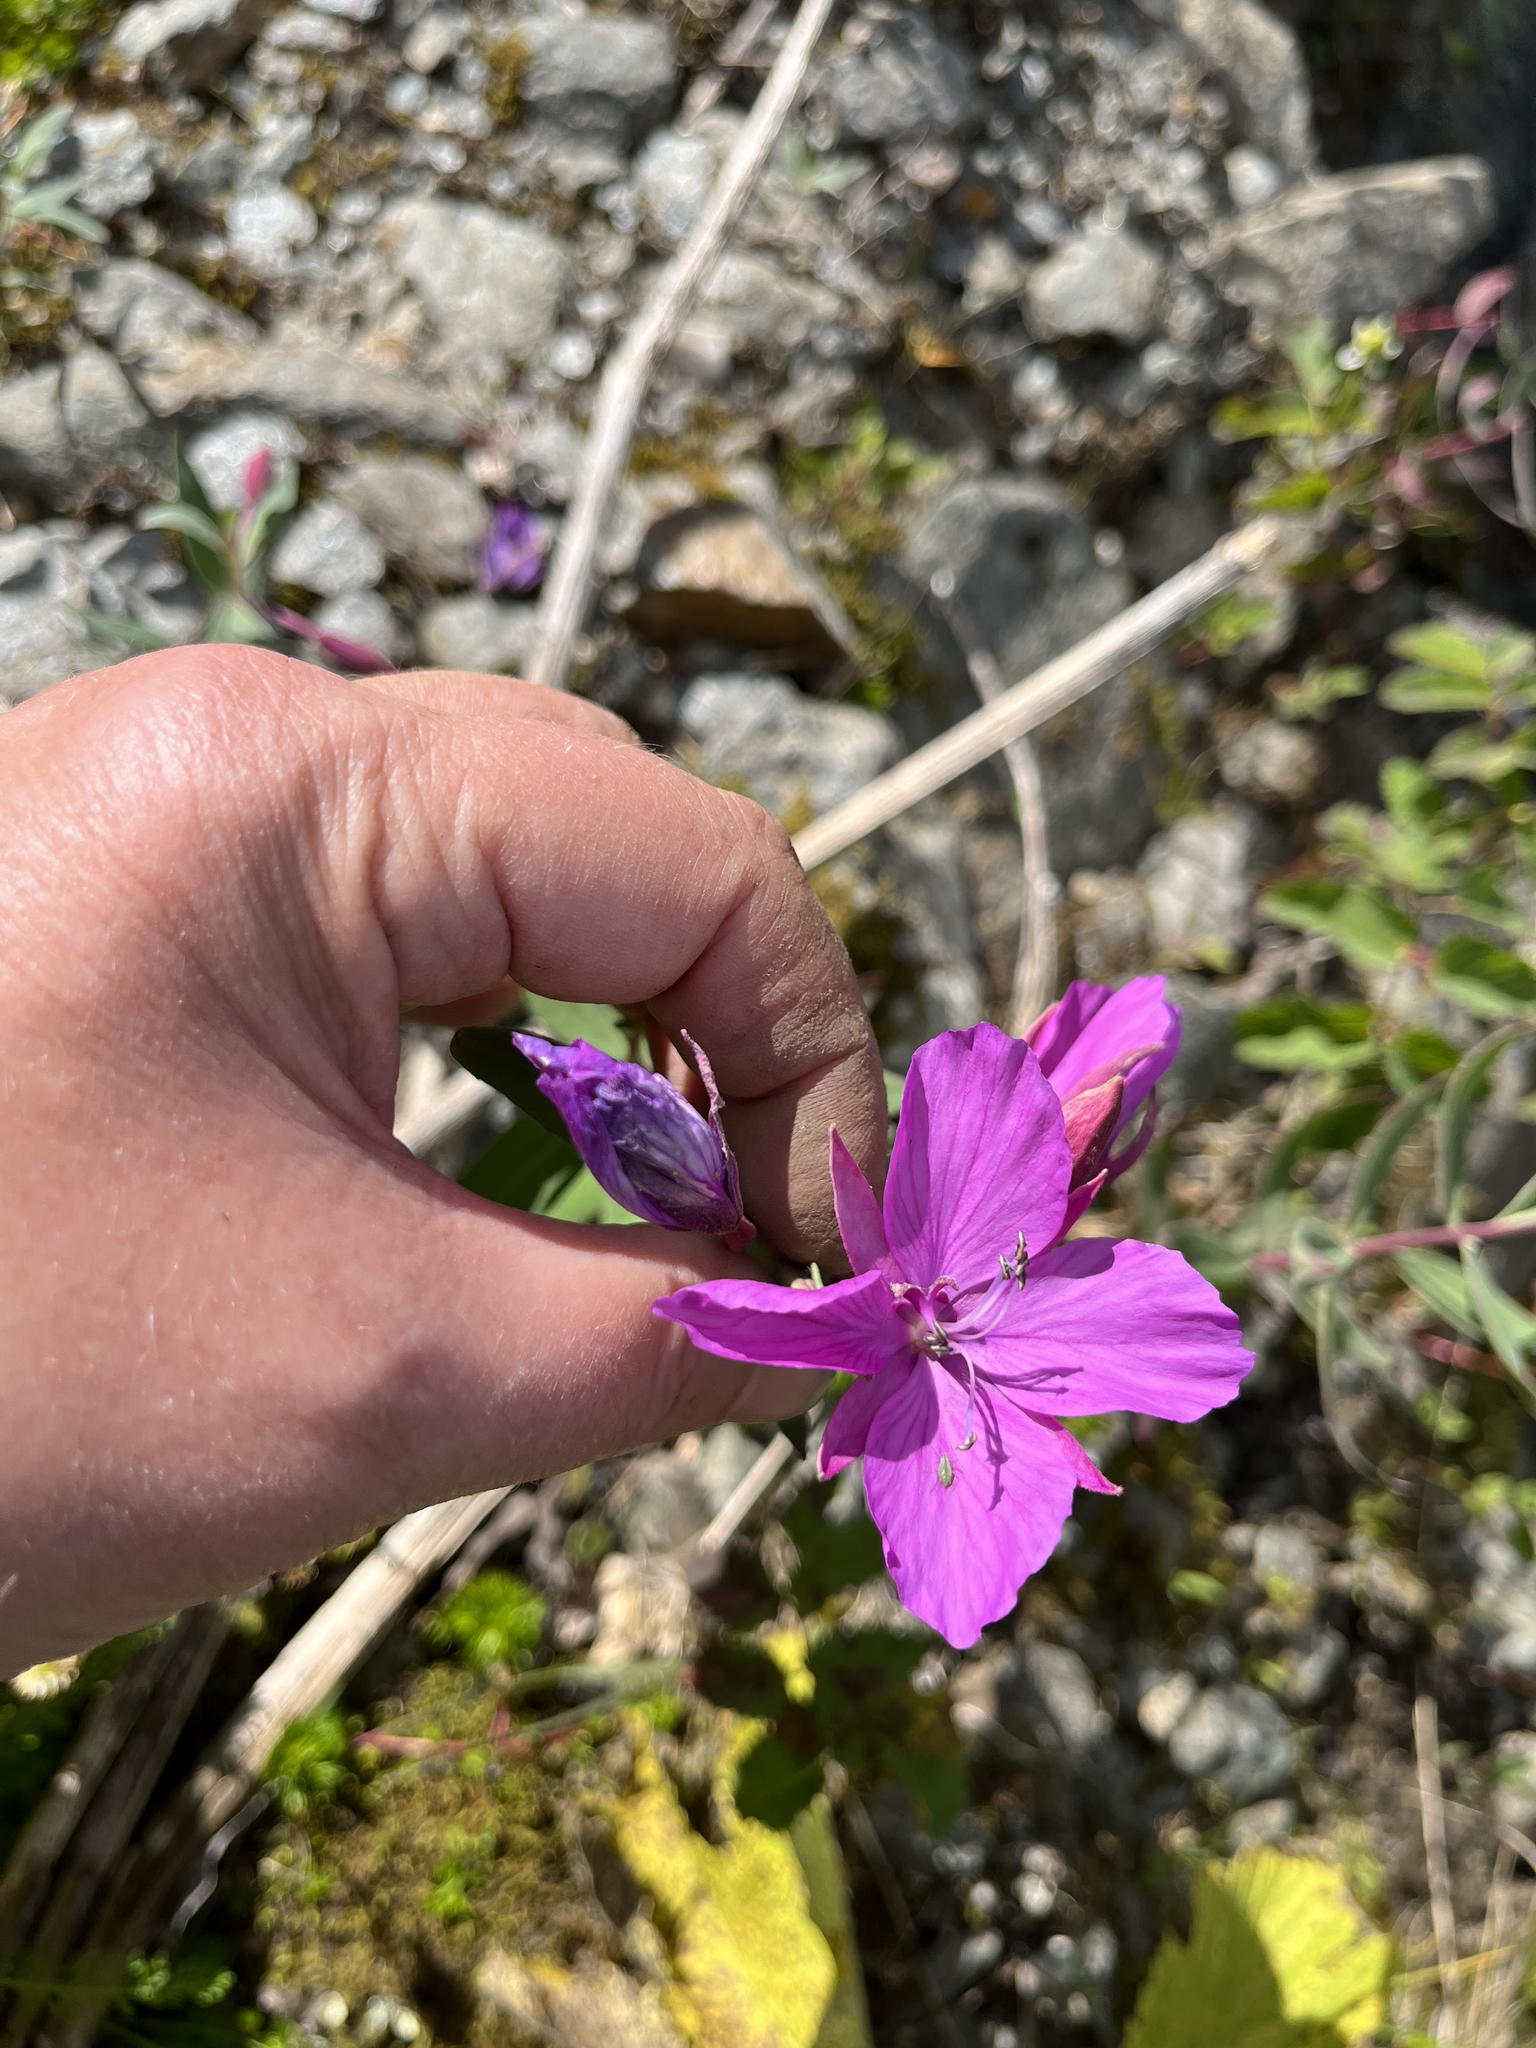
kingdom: Plantae
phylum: Tracheophyta
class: Magnoliopsida
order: Myrtales
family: Onagraceae
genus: Chamaenerion
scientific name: Chamaenerion latifolium
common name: Dwarf fireweed
